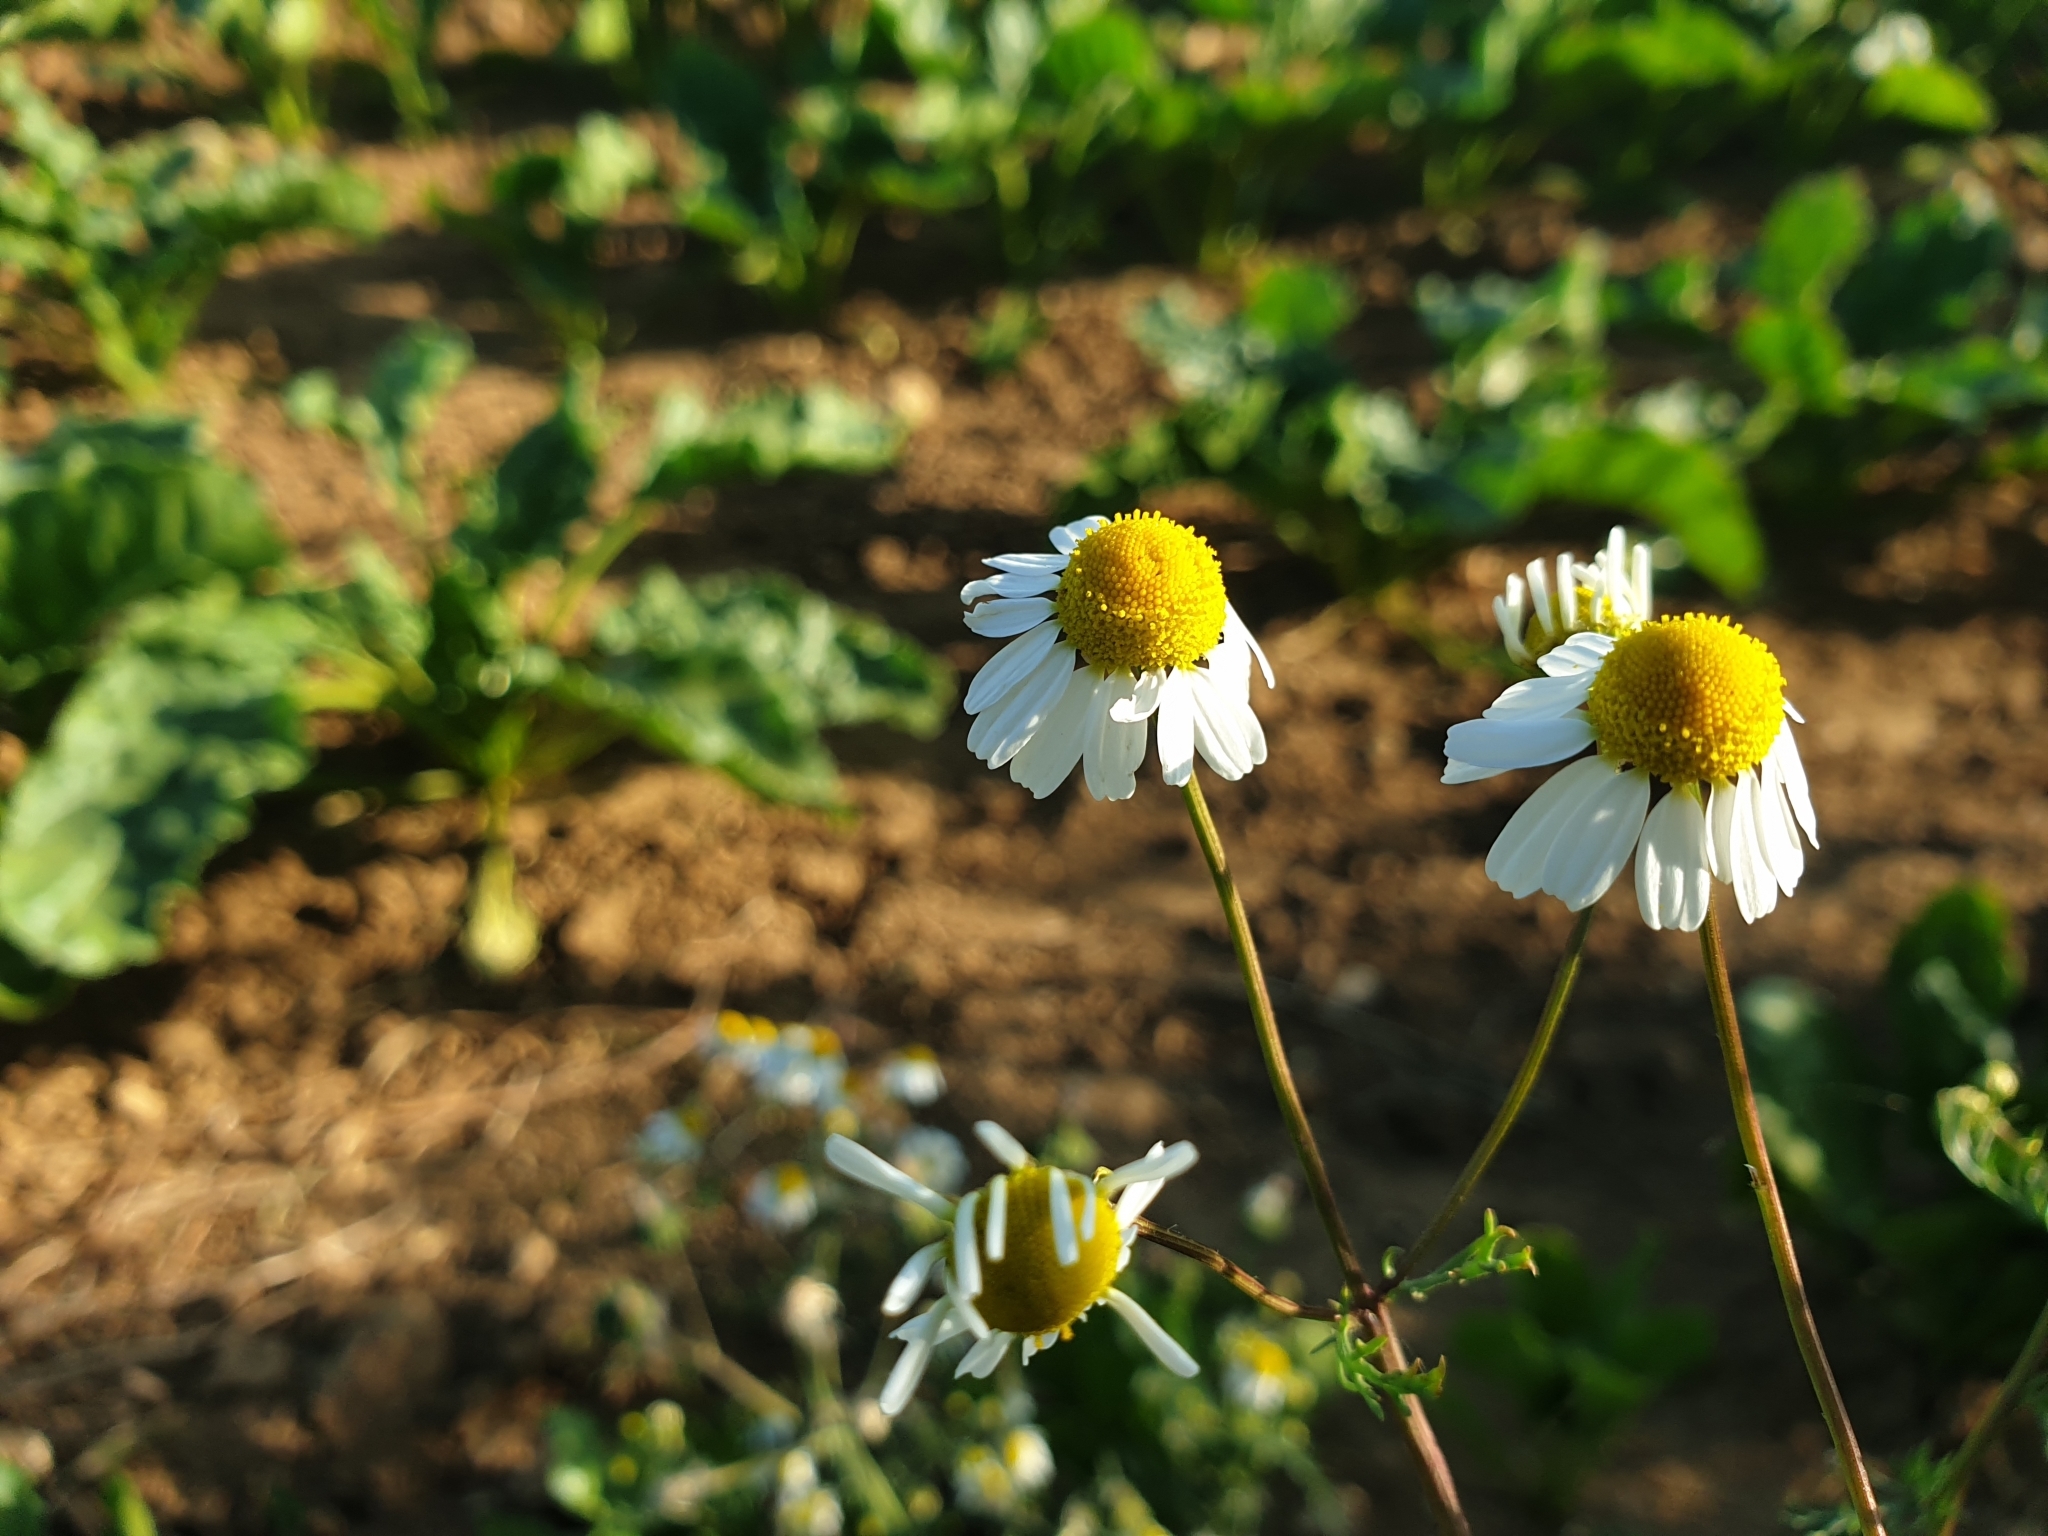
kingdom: Plantae
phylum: Tracheophyta
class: Magnoliopsida
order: Asterales
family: Asteraceae
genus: Matricaria
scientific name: Matricaria chamomilla
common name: Scented mayweed
